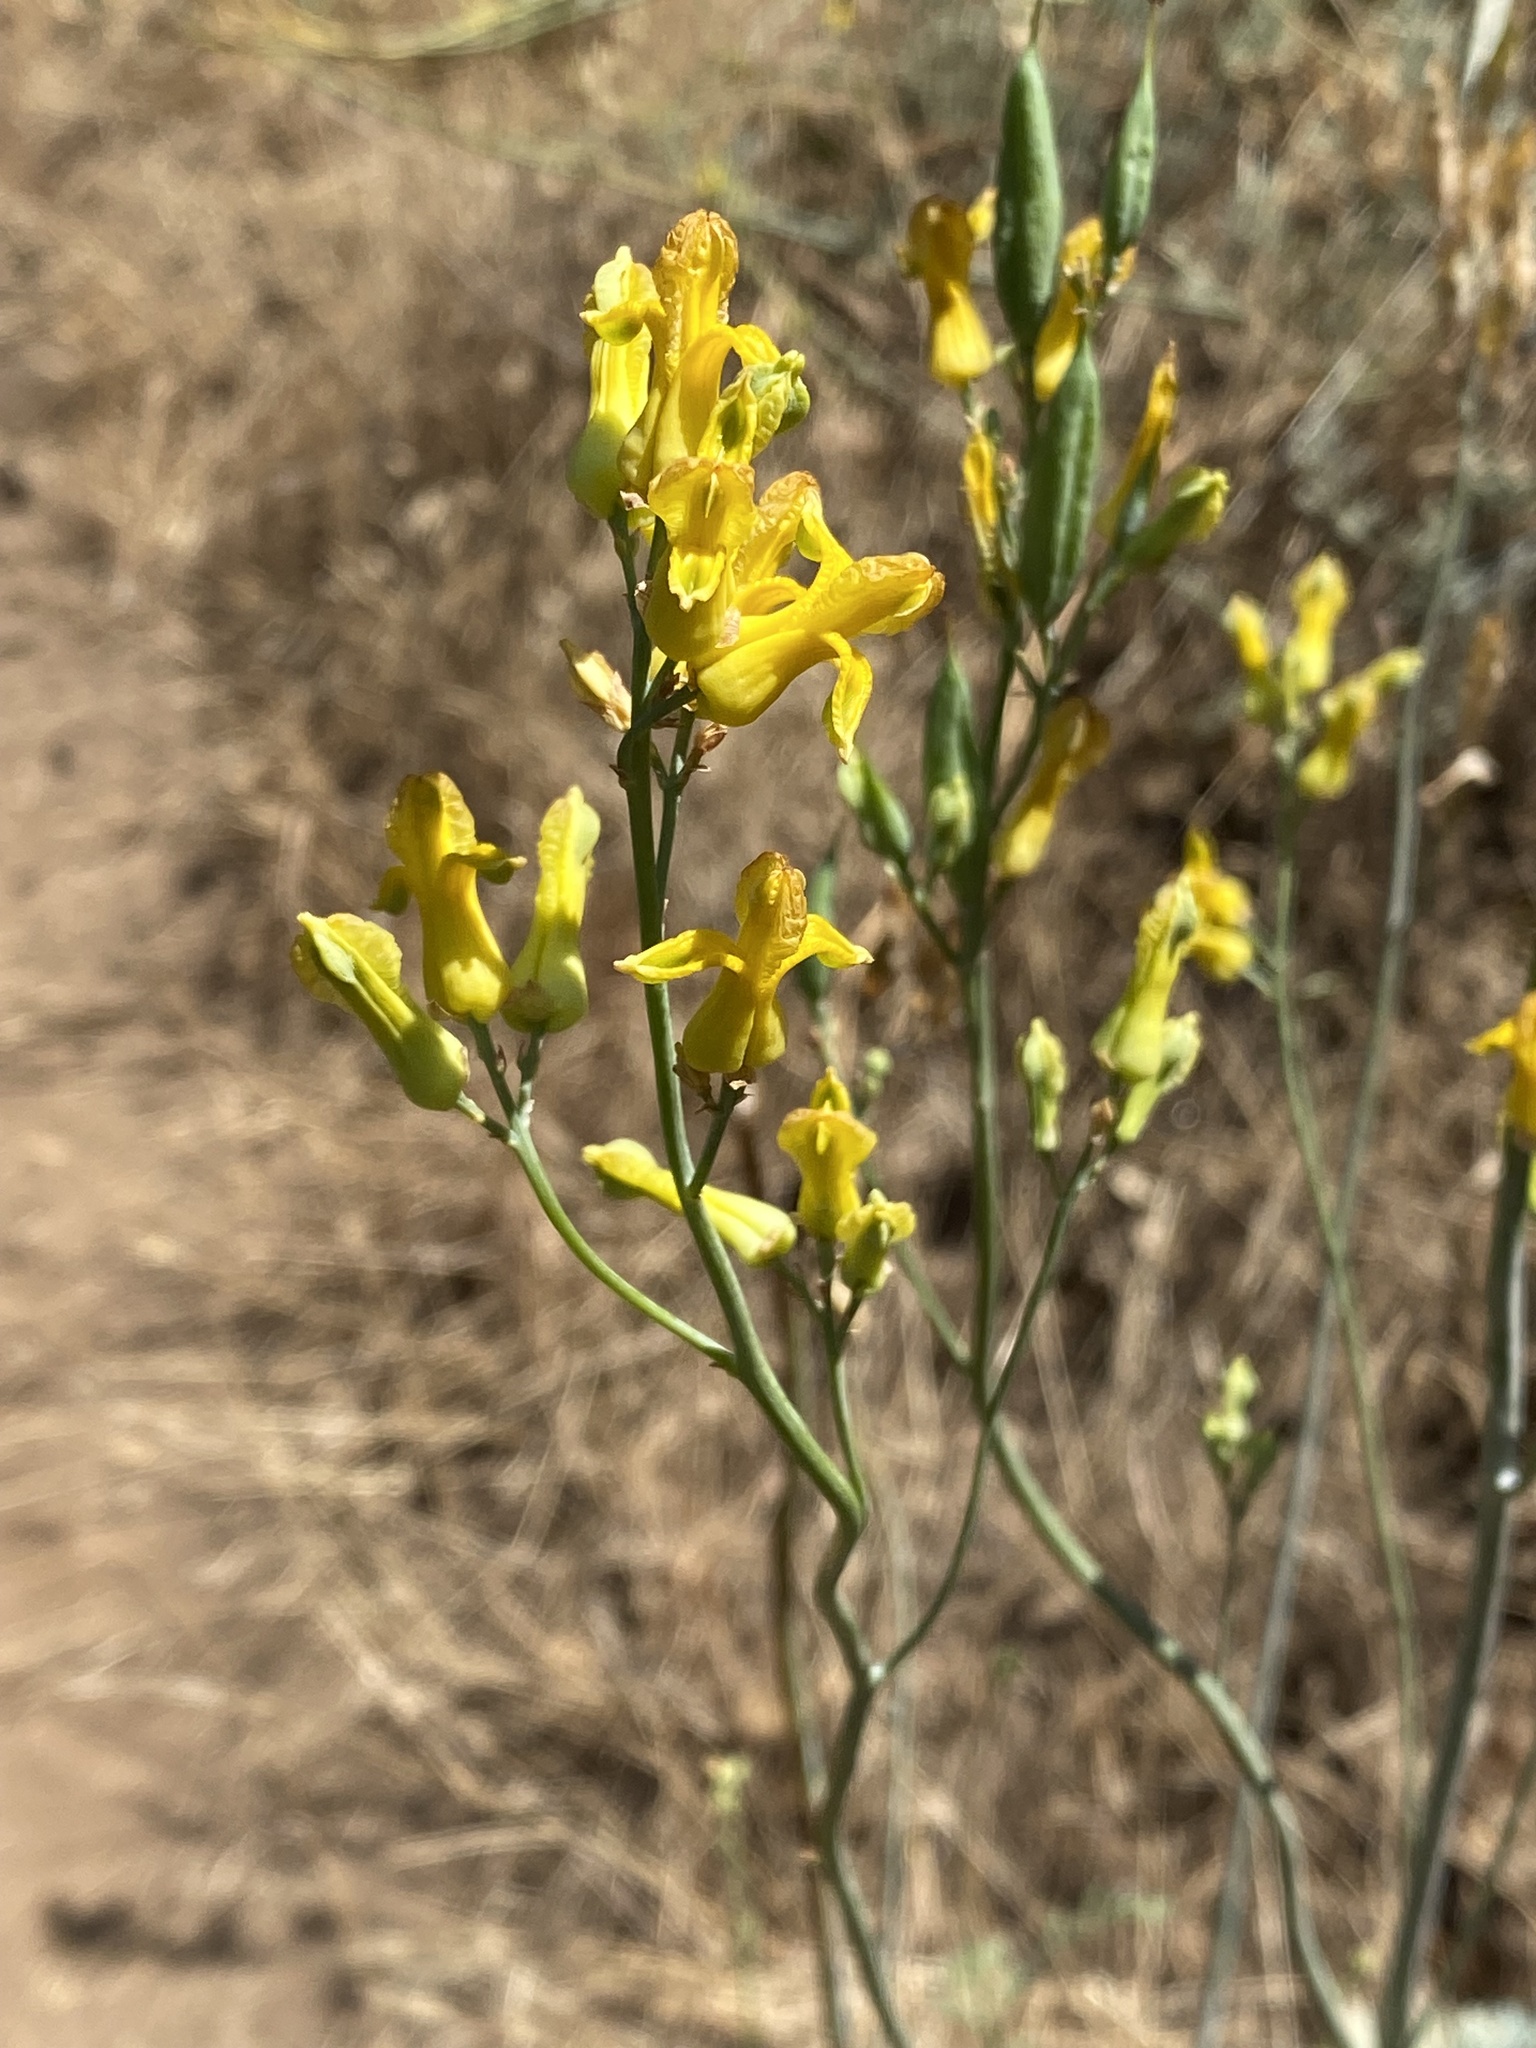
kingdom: Plantae
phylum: Tracheophyta
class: Magnoliopsida
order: Ranunculales
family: Papaveraceae
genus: Ehrendorferia
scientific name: Ehrendorferia chrysantha
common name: Golden eardrops
